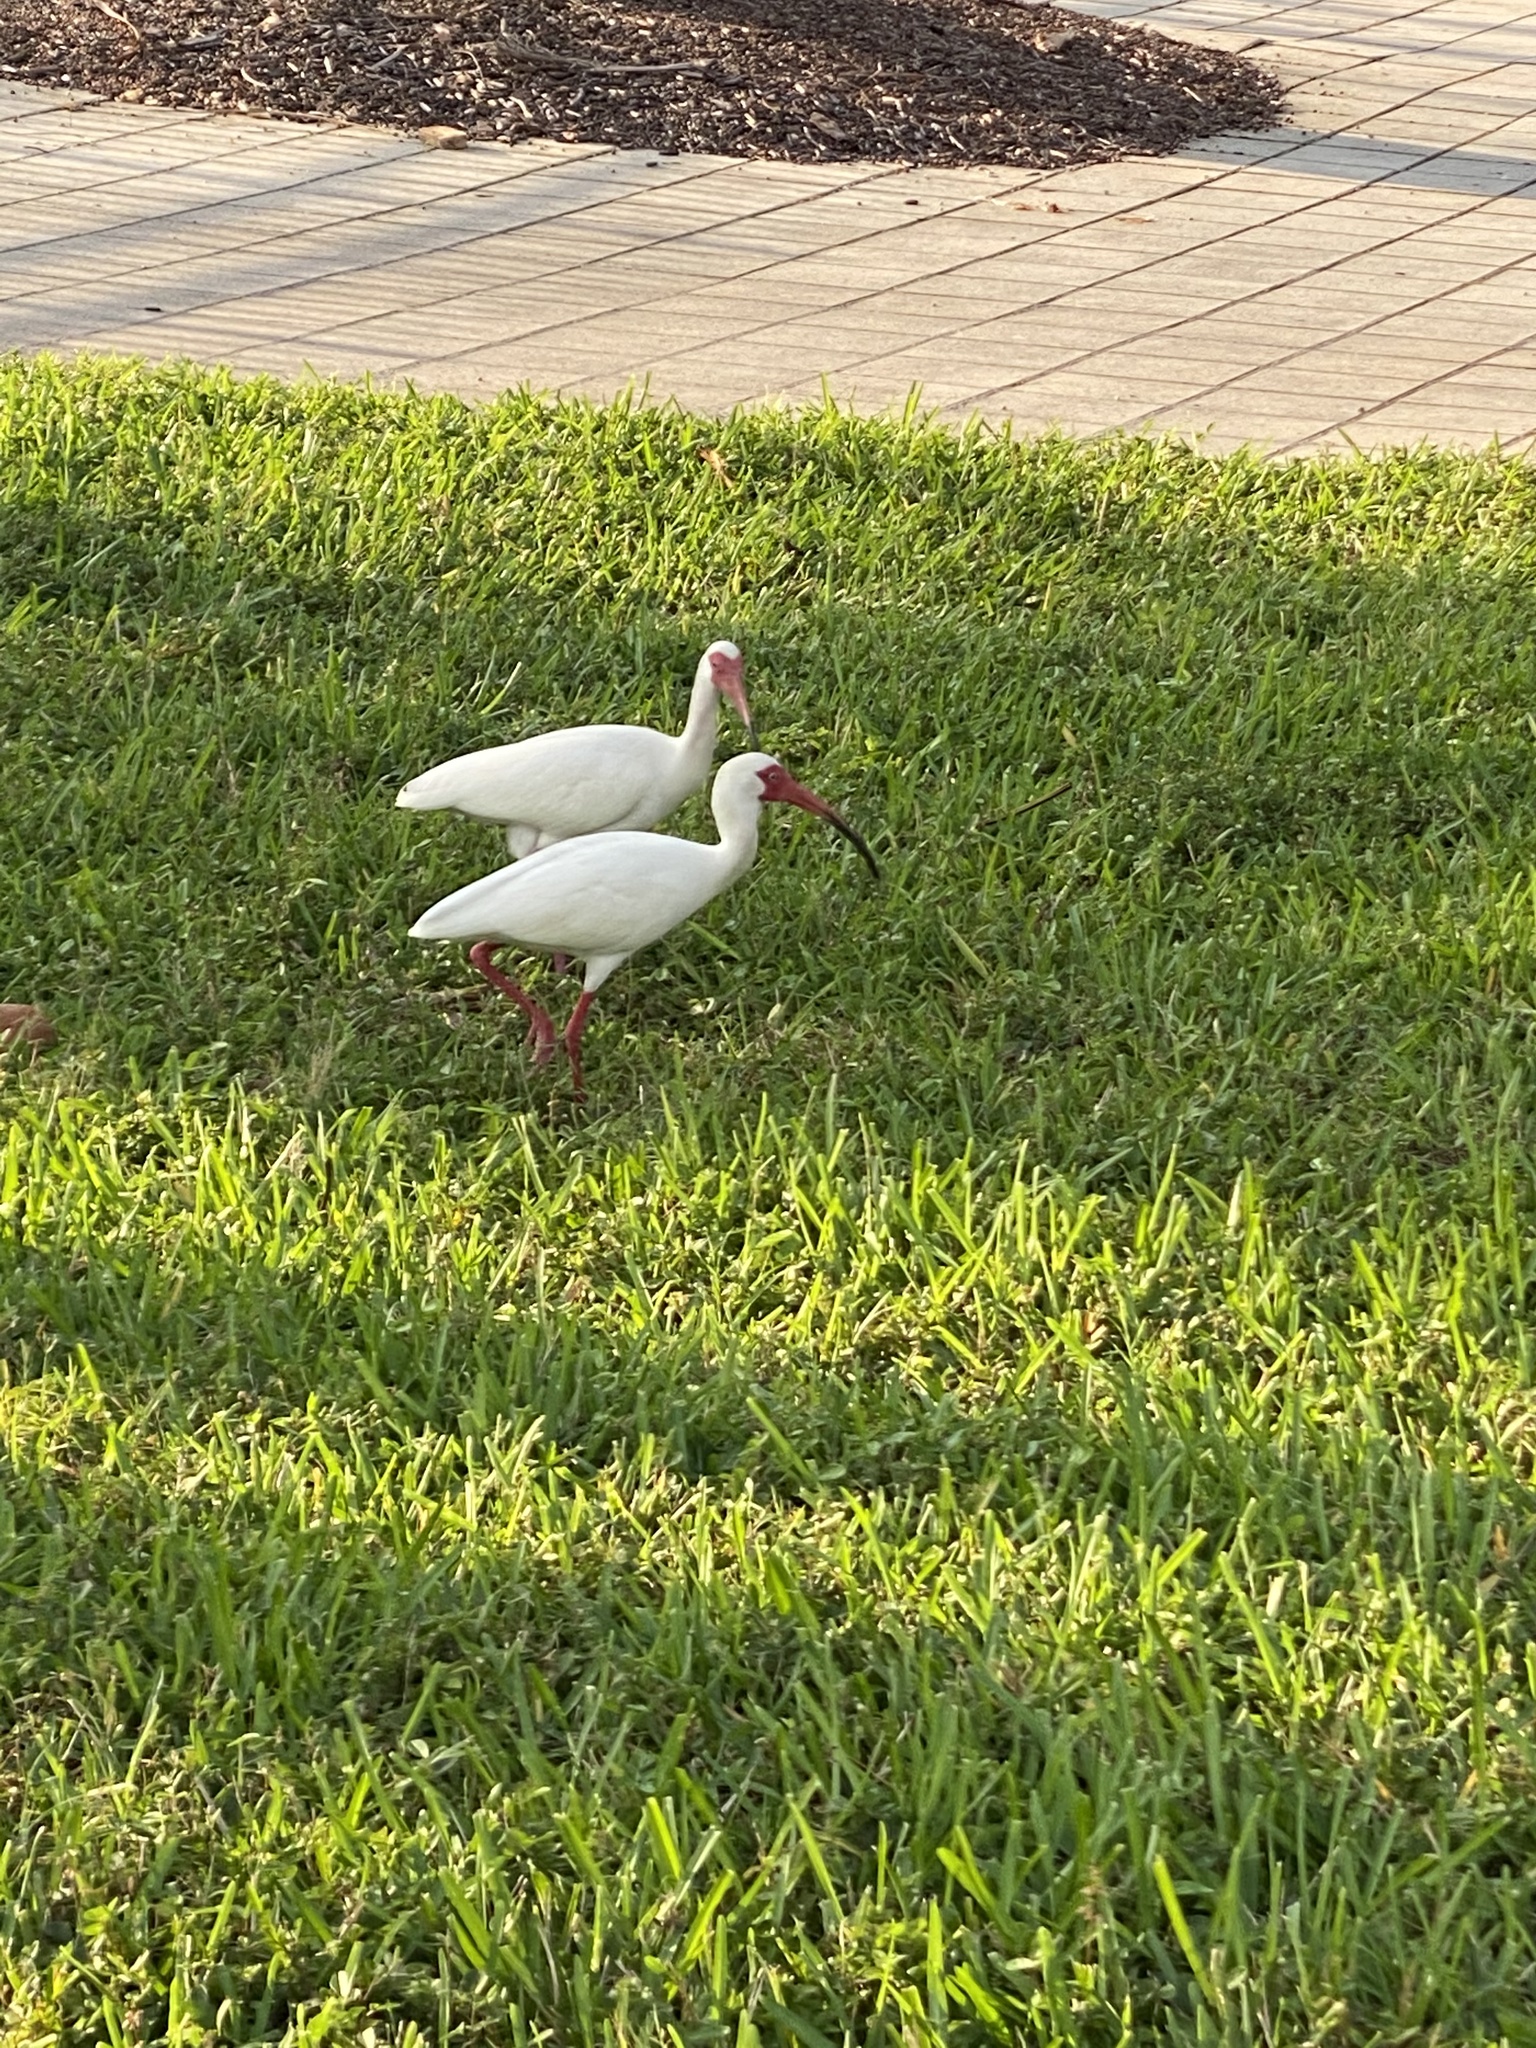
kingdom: Animalia
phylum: Chordata
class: Aves
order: Pelecaniformes
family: Threskiornithidae
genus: Eudocimus
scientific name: Eudocimus albus
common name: White ibis
